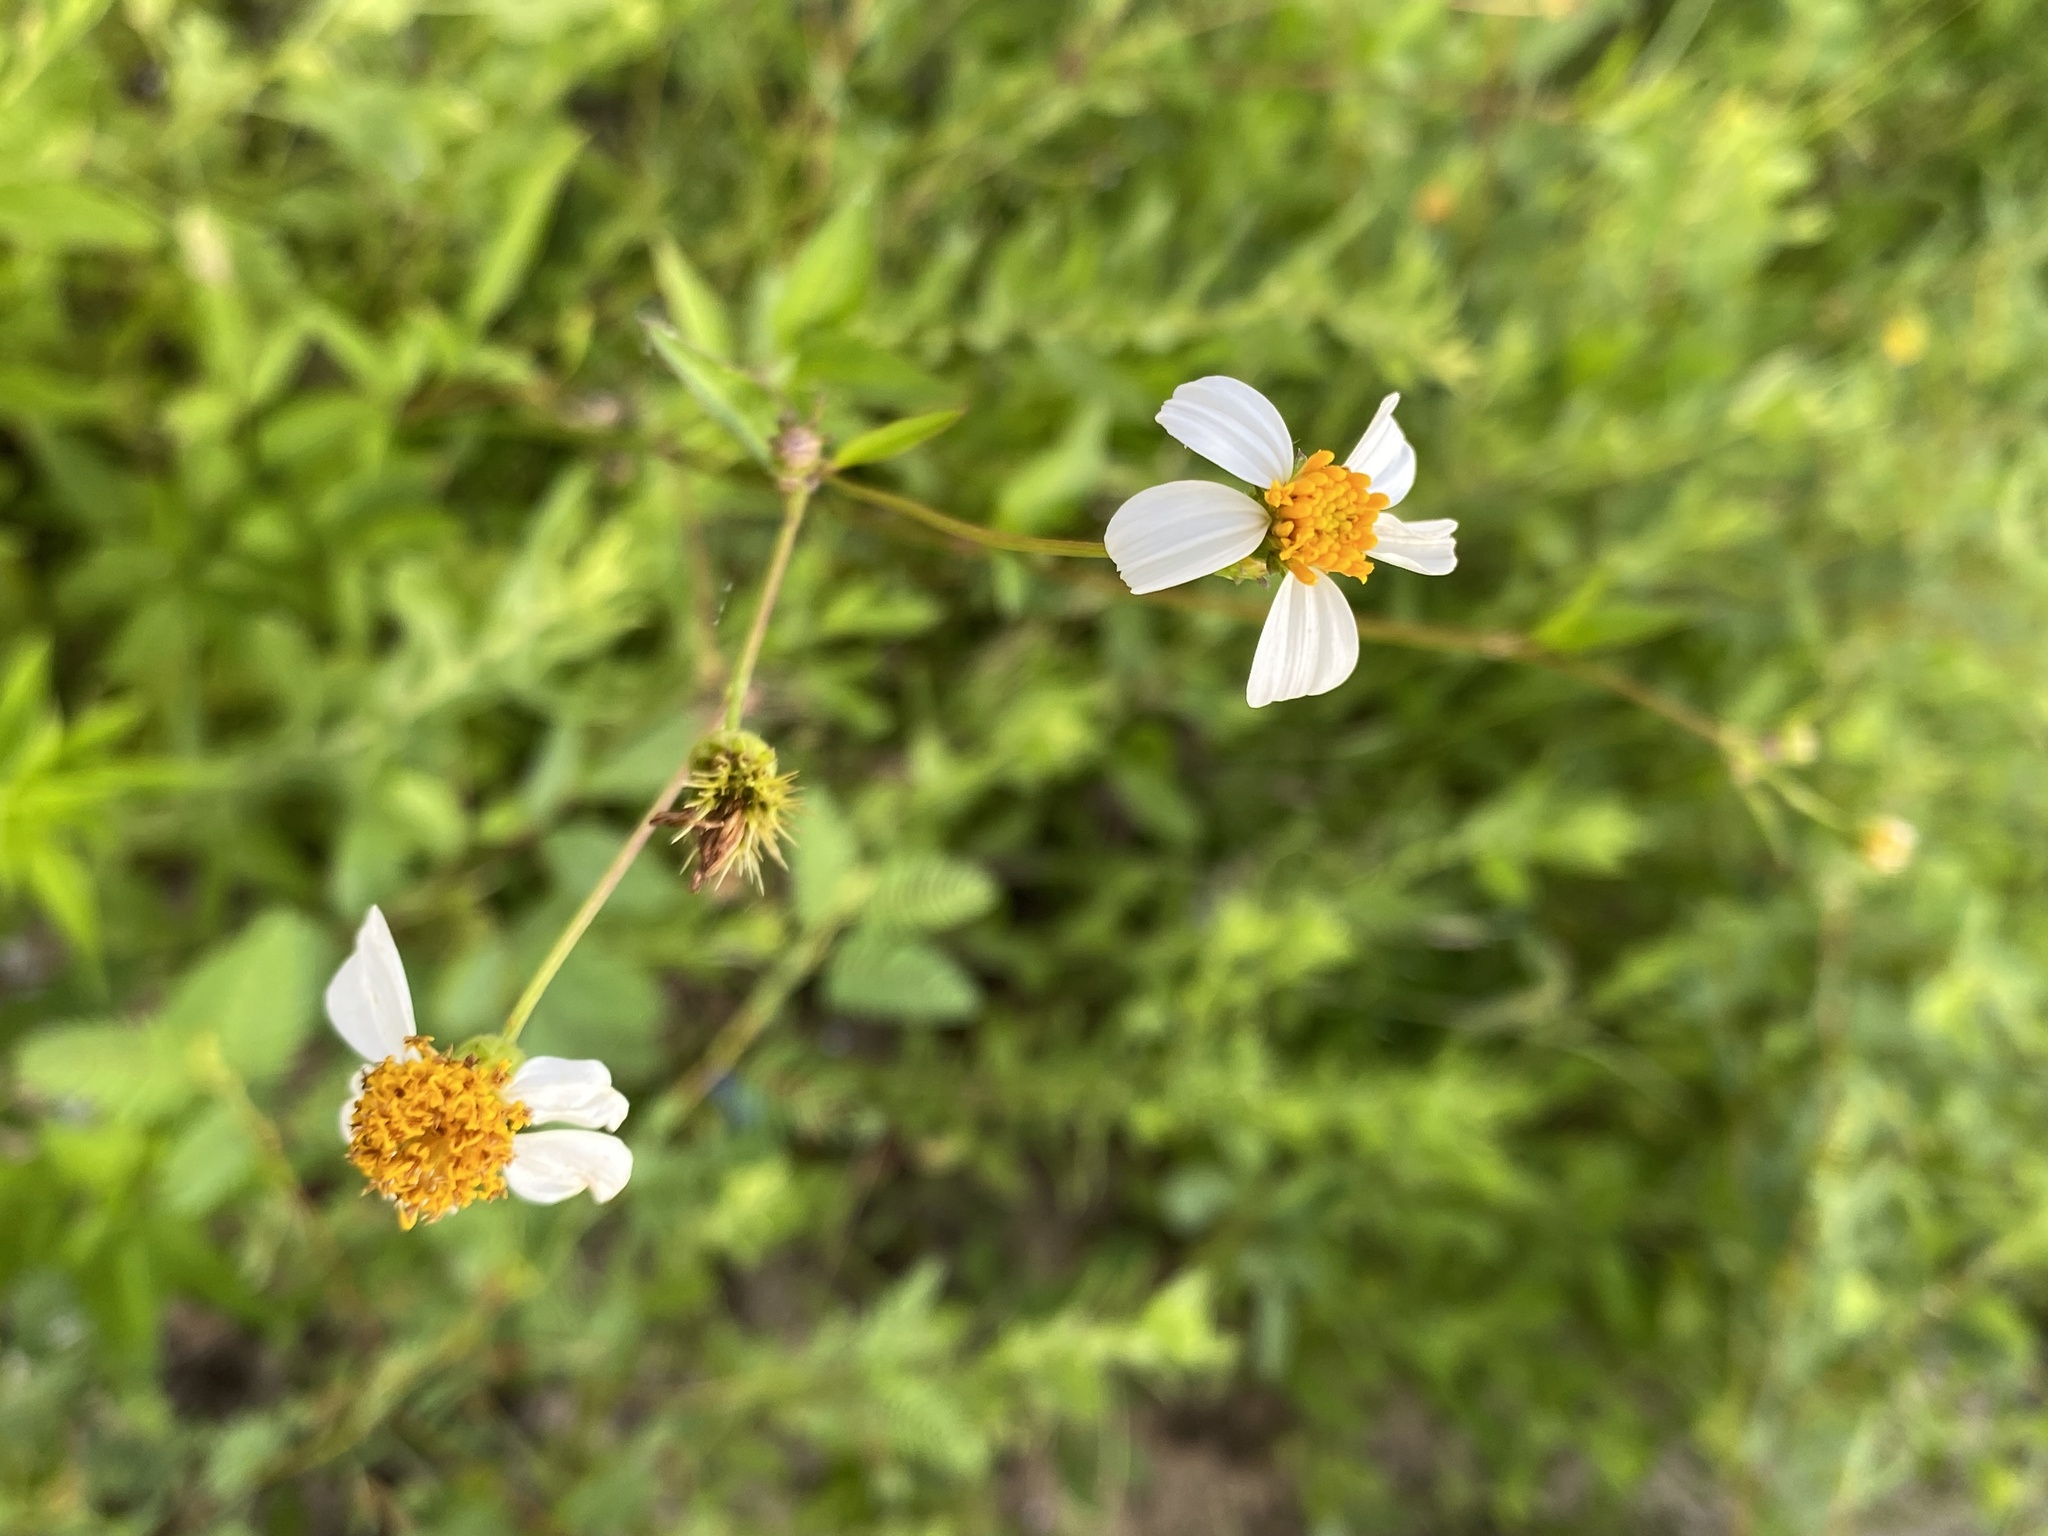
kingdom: Plantae
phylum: Tracheophyta
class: Magnoliopsida
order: Asterales
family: Asteraceae
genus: Bidens
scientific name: Bidens alba
